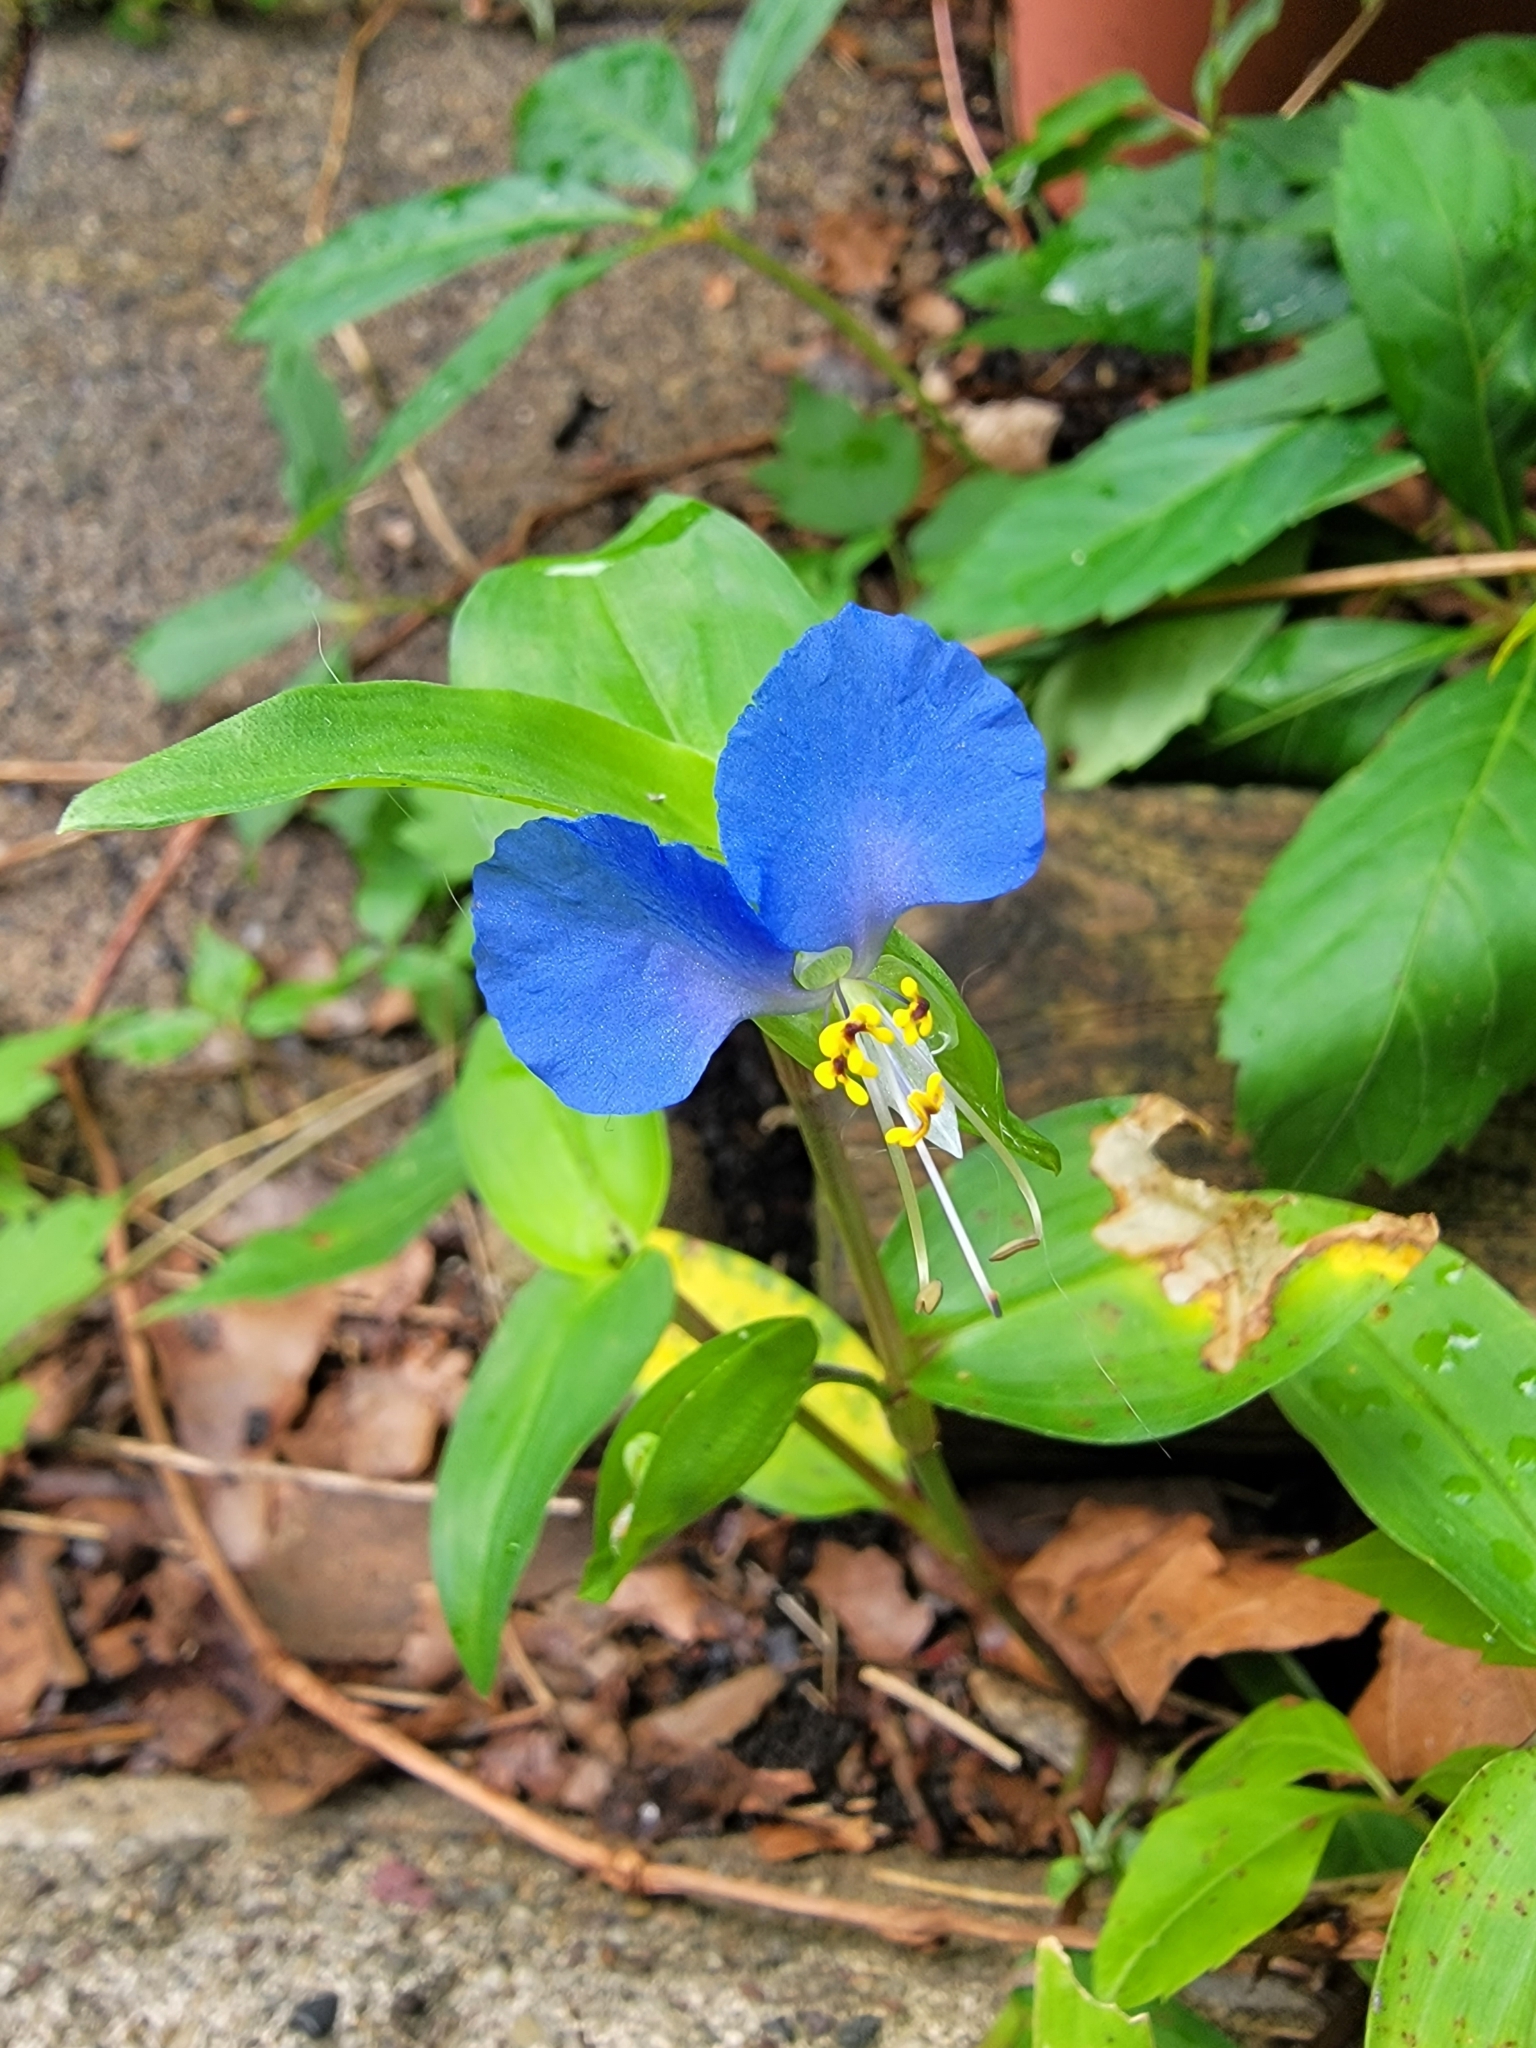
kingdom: Plantae
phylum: Tracheophyta
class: Liliopsida
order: Commelinales
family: Commelinaceae
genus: Commelina
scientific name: Commelina communis
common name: Asiatic dayflower
